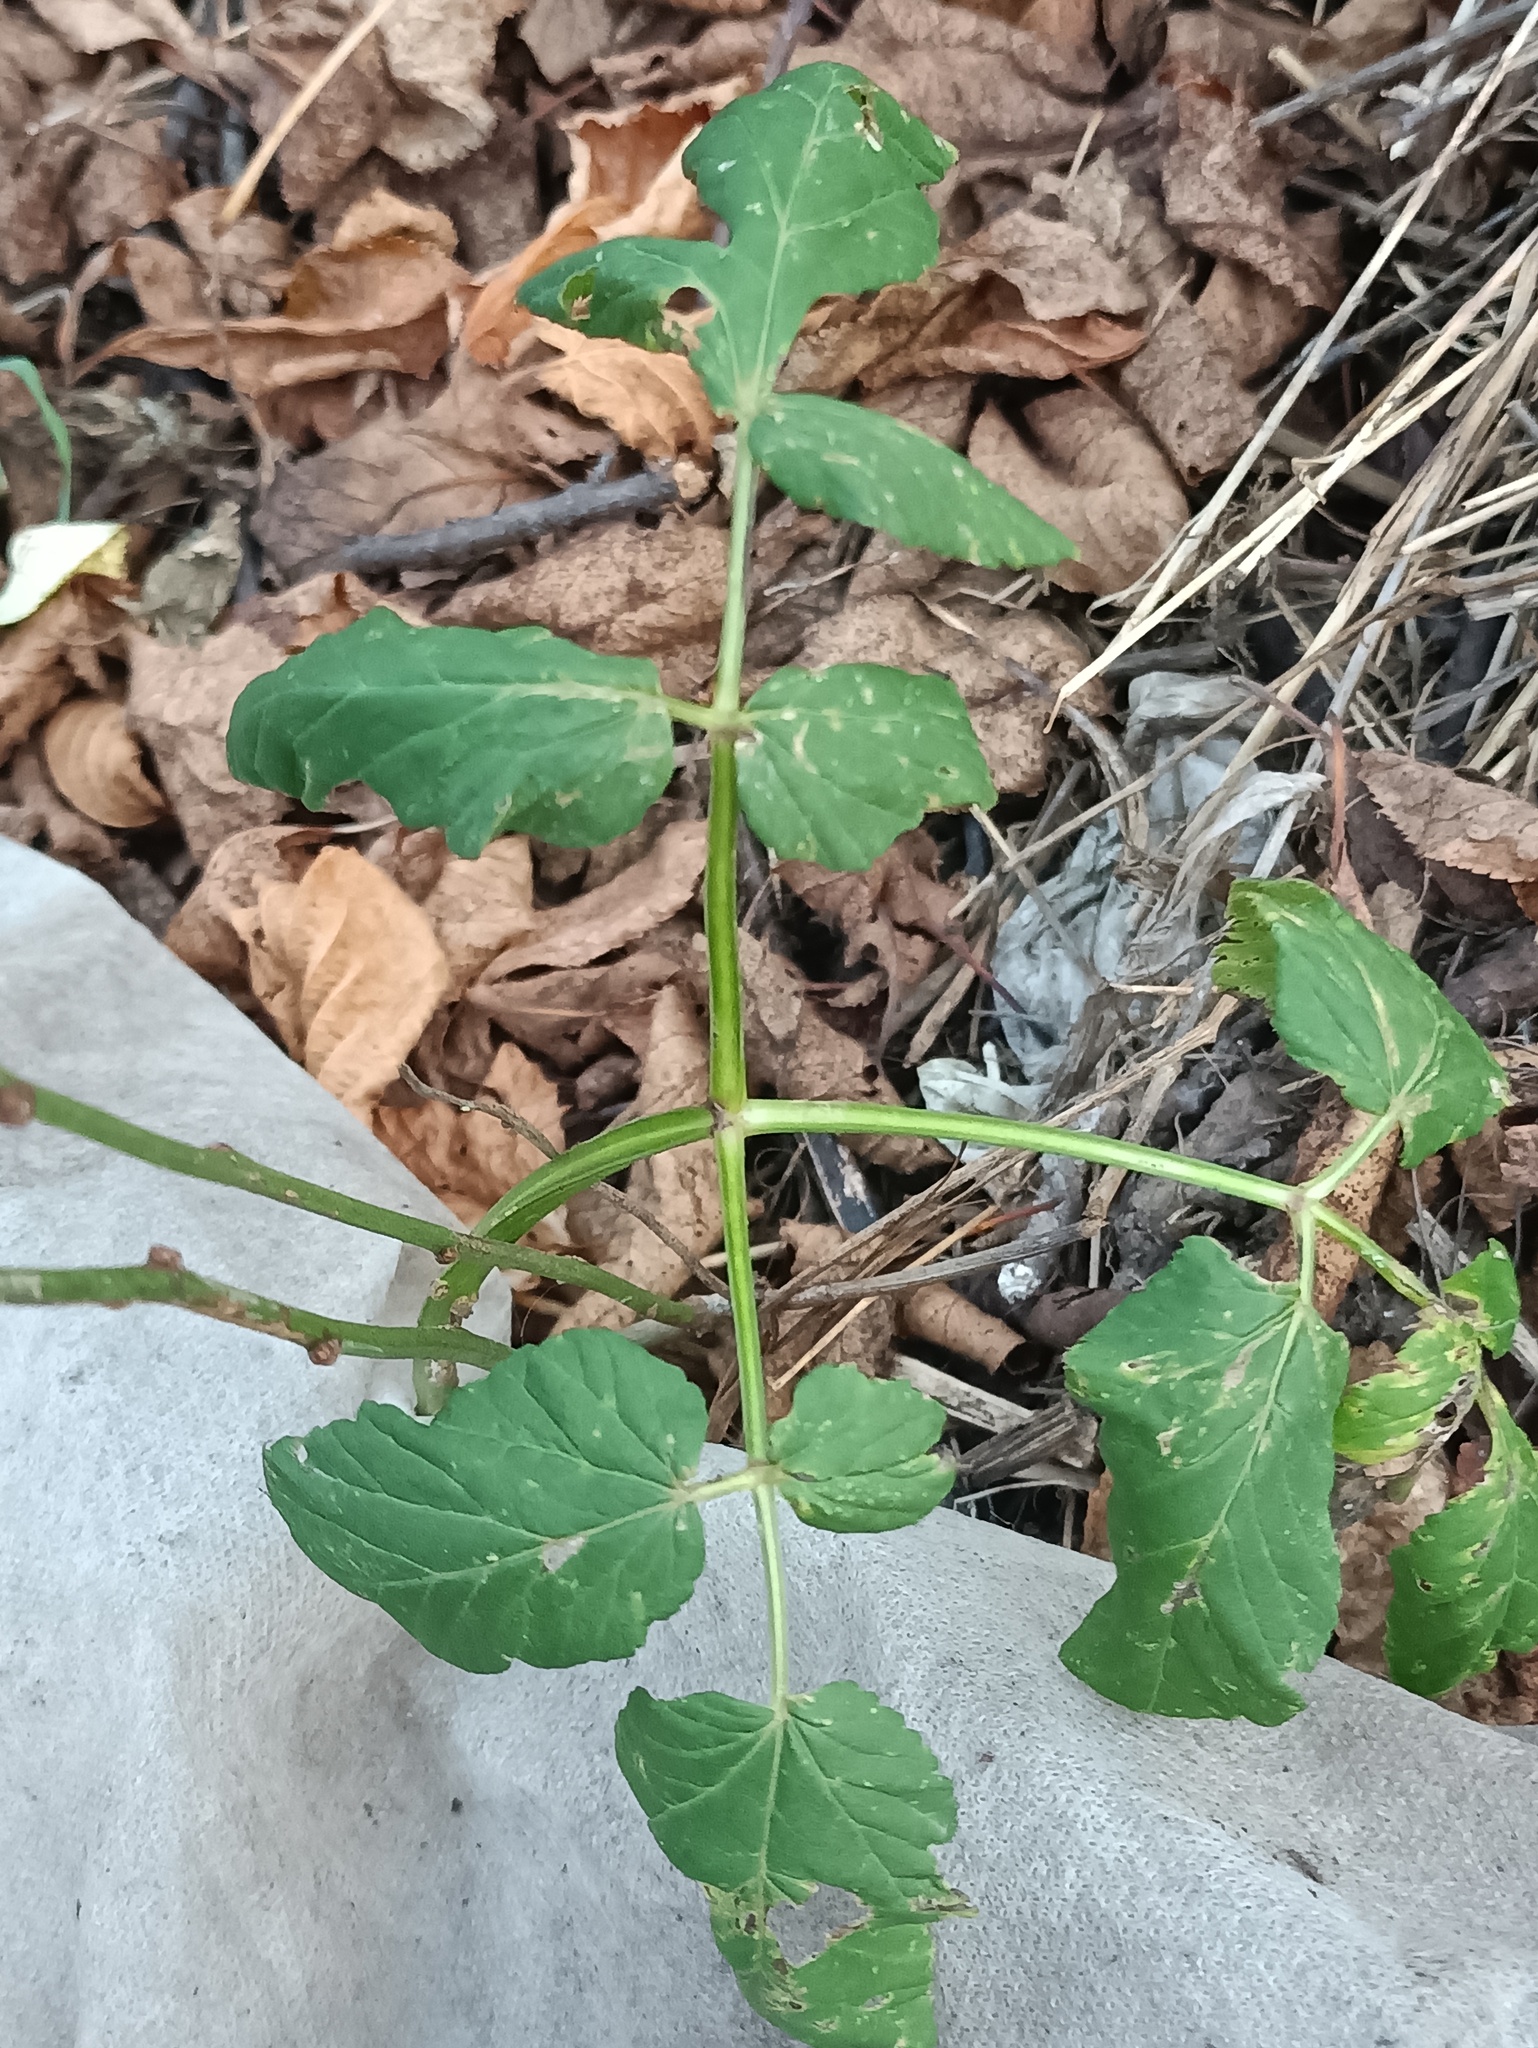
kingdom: Plantae
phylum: Tracheophyta
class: Magnoliopsida
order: Apiales
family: Apiaceae
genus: Aegopodium
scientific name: Aegopodium podagraria
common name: Ground-elder
